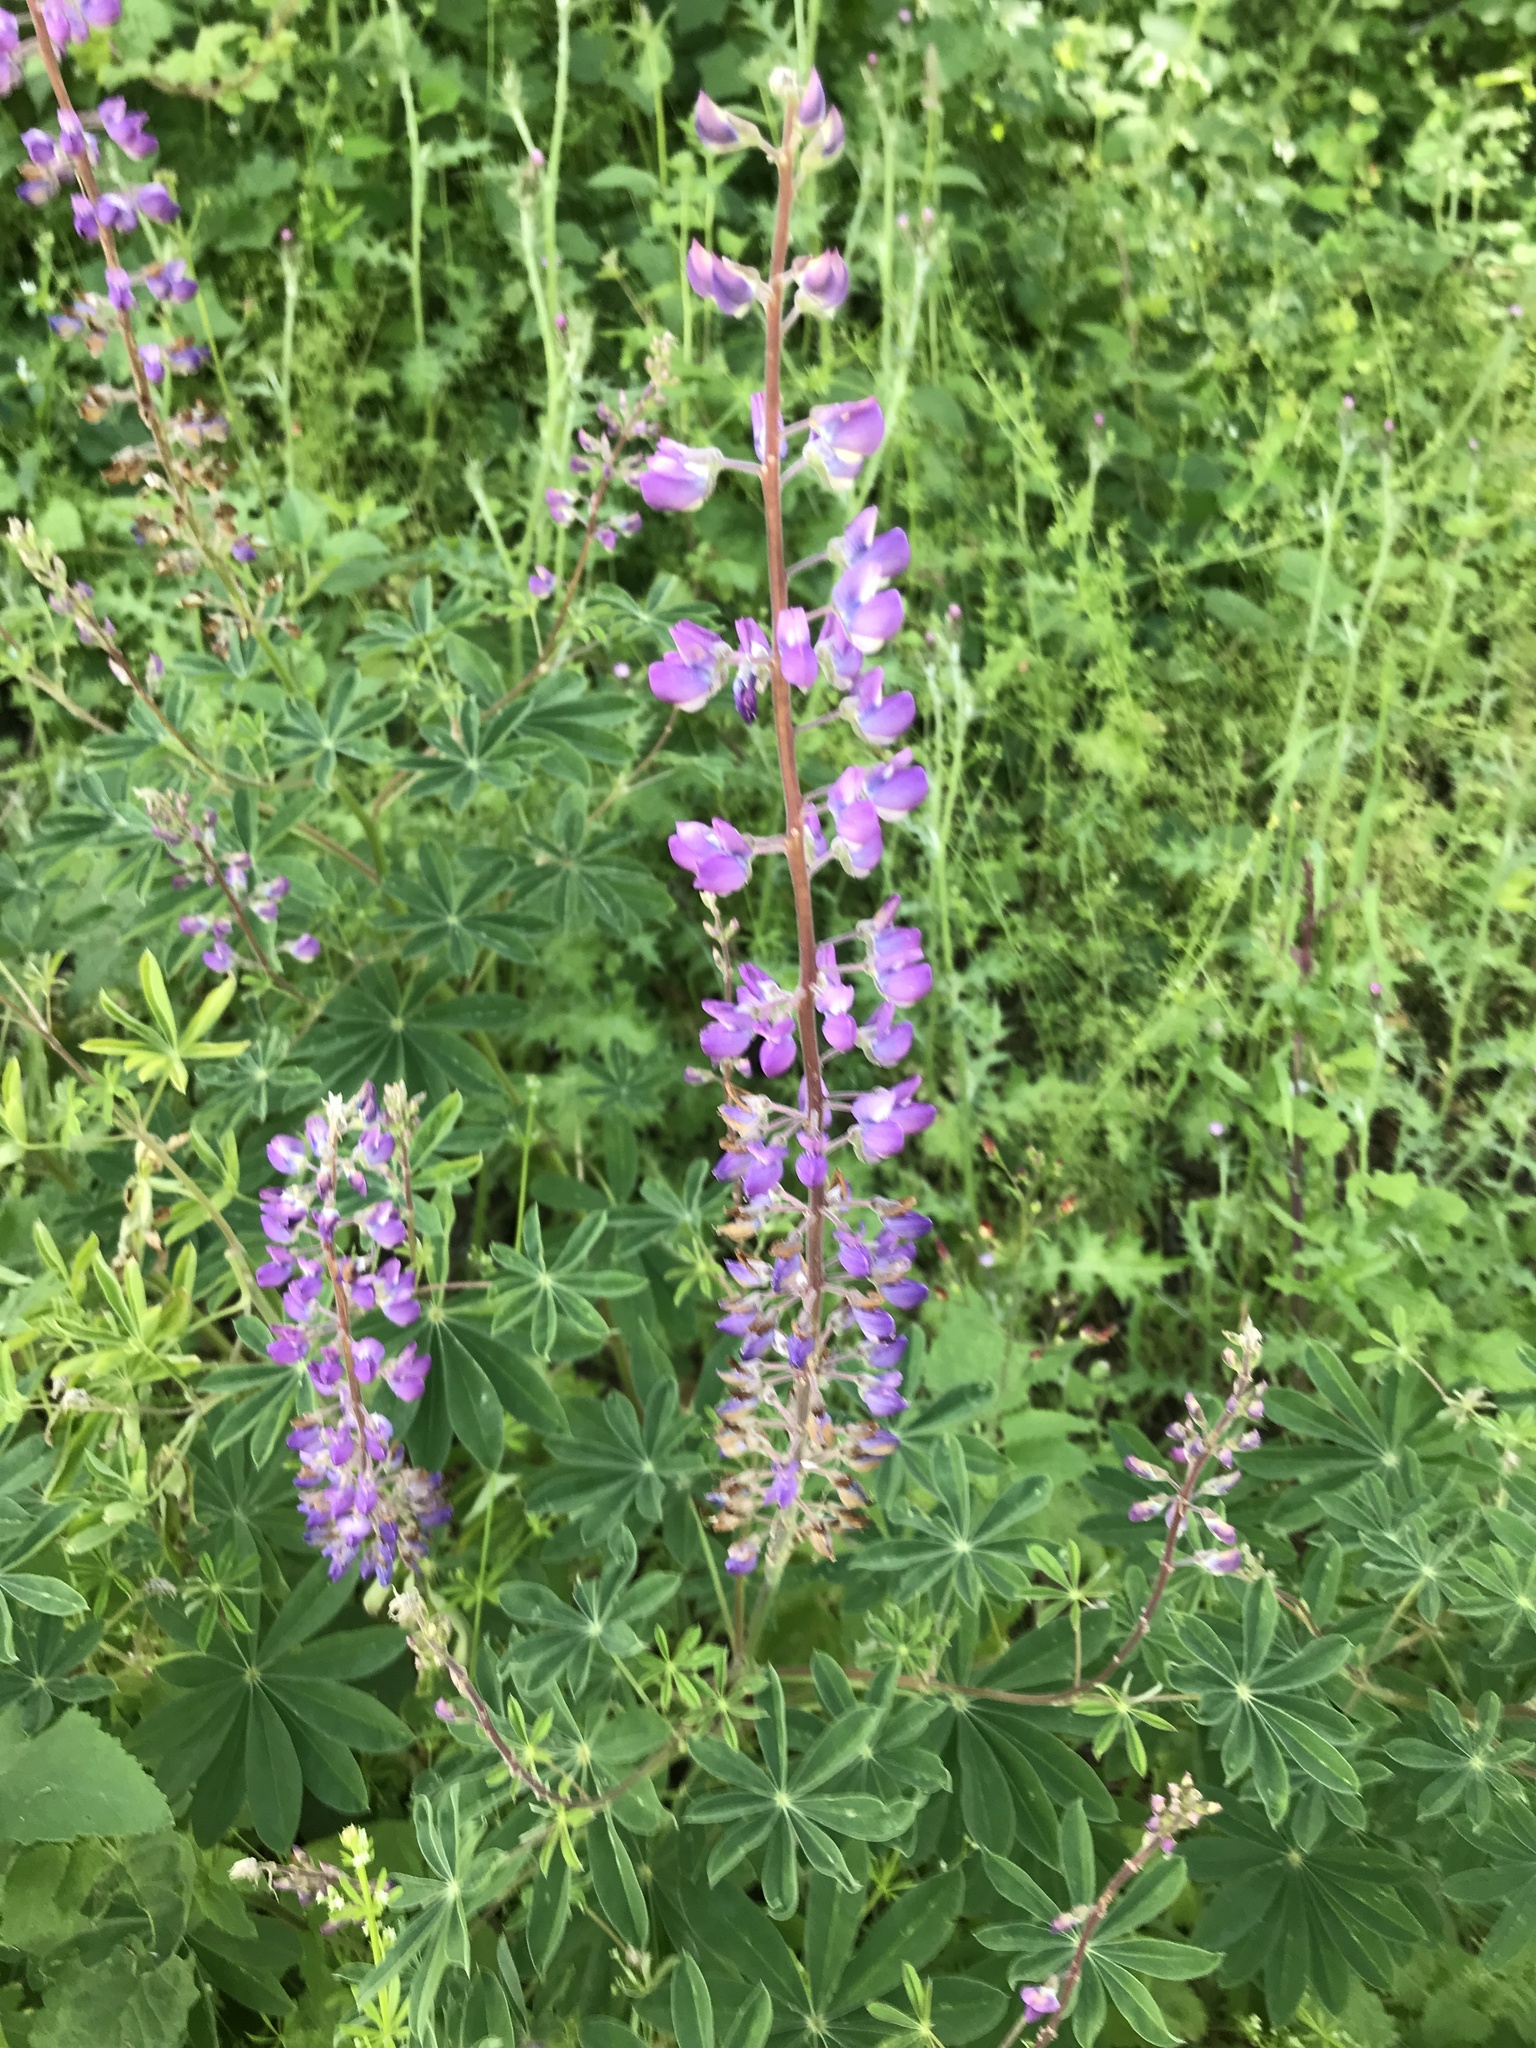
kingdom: Plantae
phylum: Tracheophyta
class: Magnoliopsida
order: Fabales
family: Fabaceae
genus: Lupinus
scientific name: Lupinus latifolius
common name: Broad-leaved lupine
